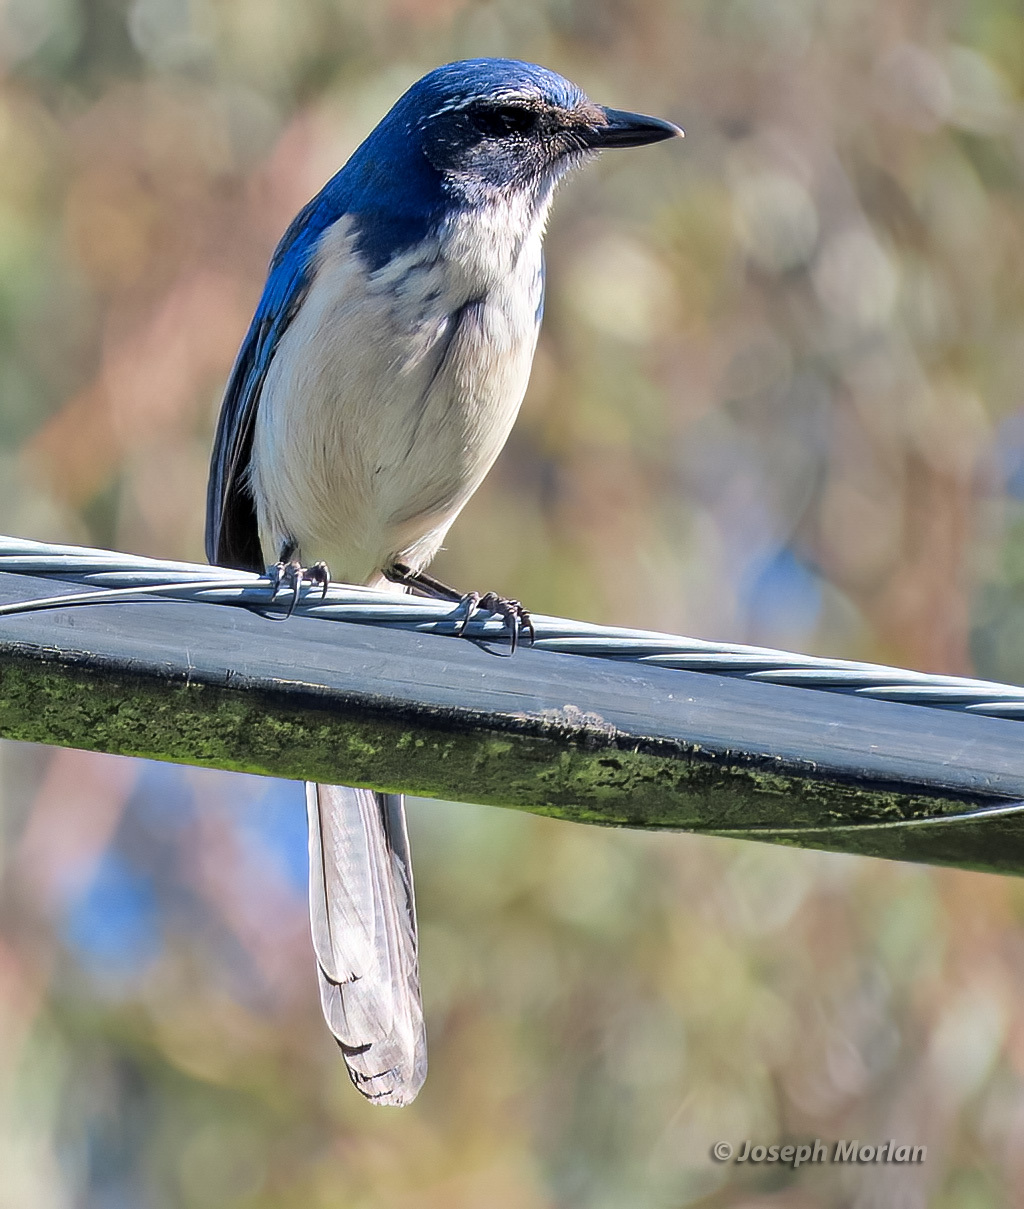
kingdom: Animalia
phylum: Chordata
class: Aves
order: Passeriformes
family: Corvidae
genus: Aphelocoma
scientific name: Aphelocoma californica
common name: California scrub-jay
